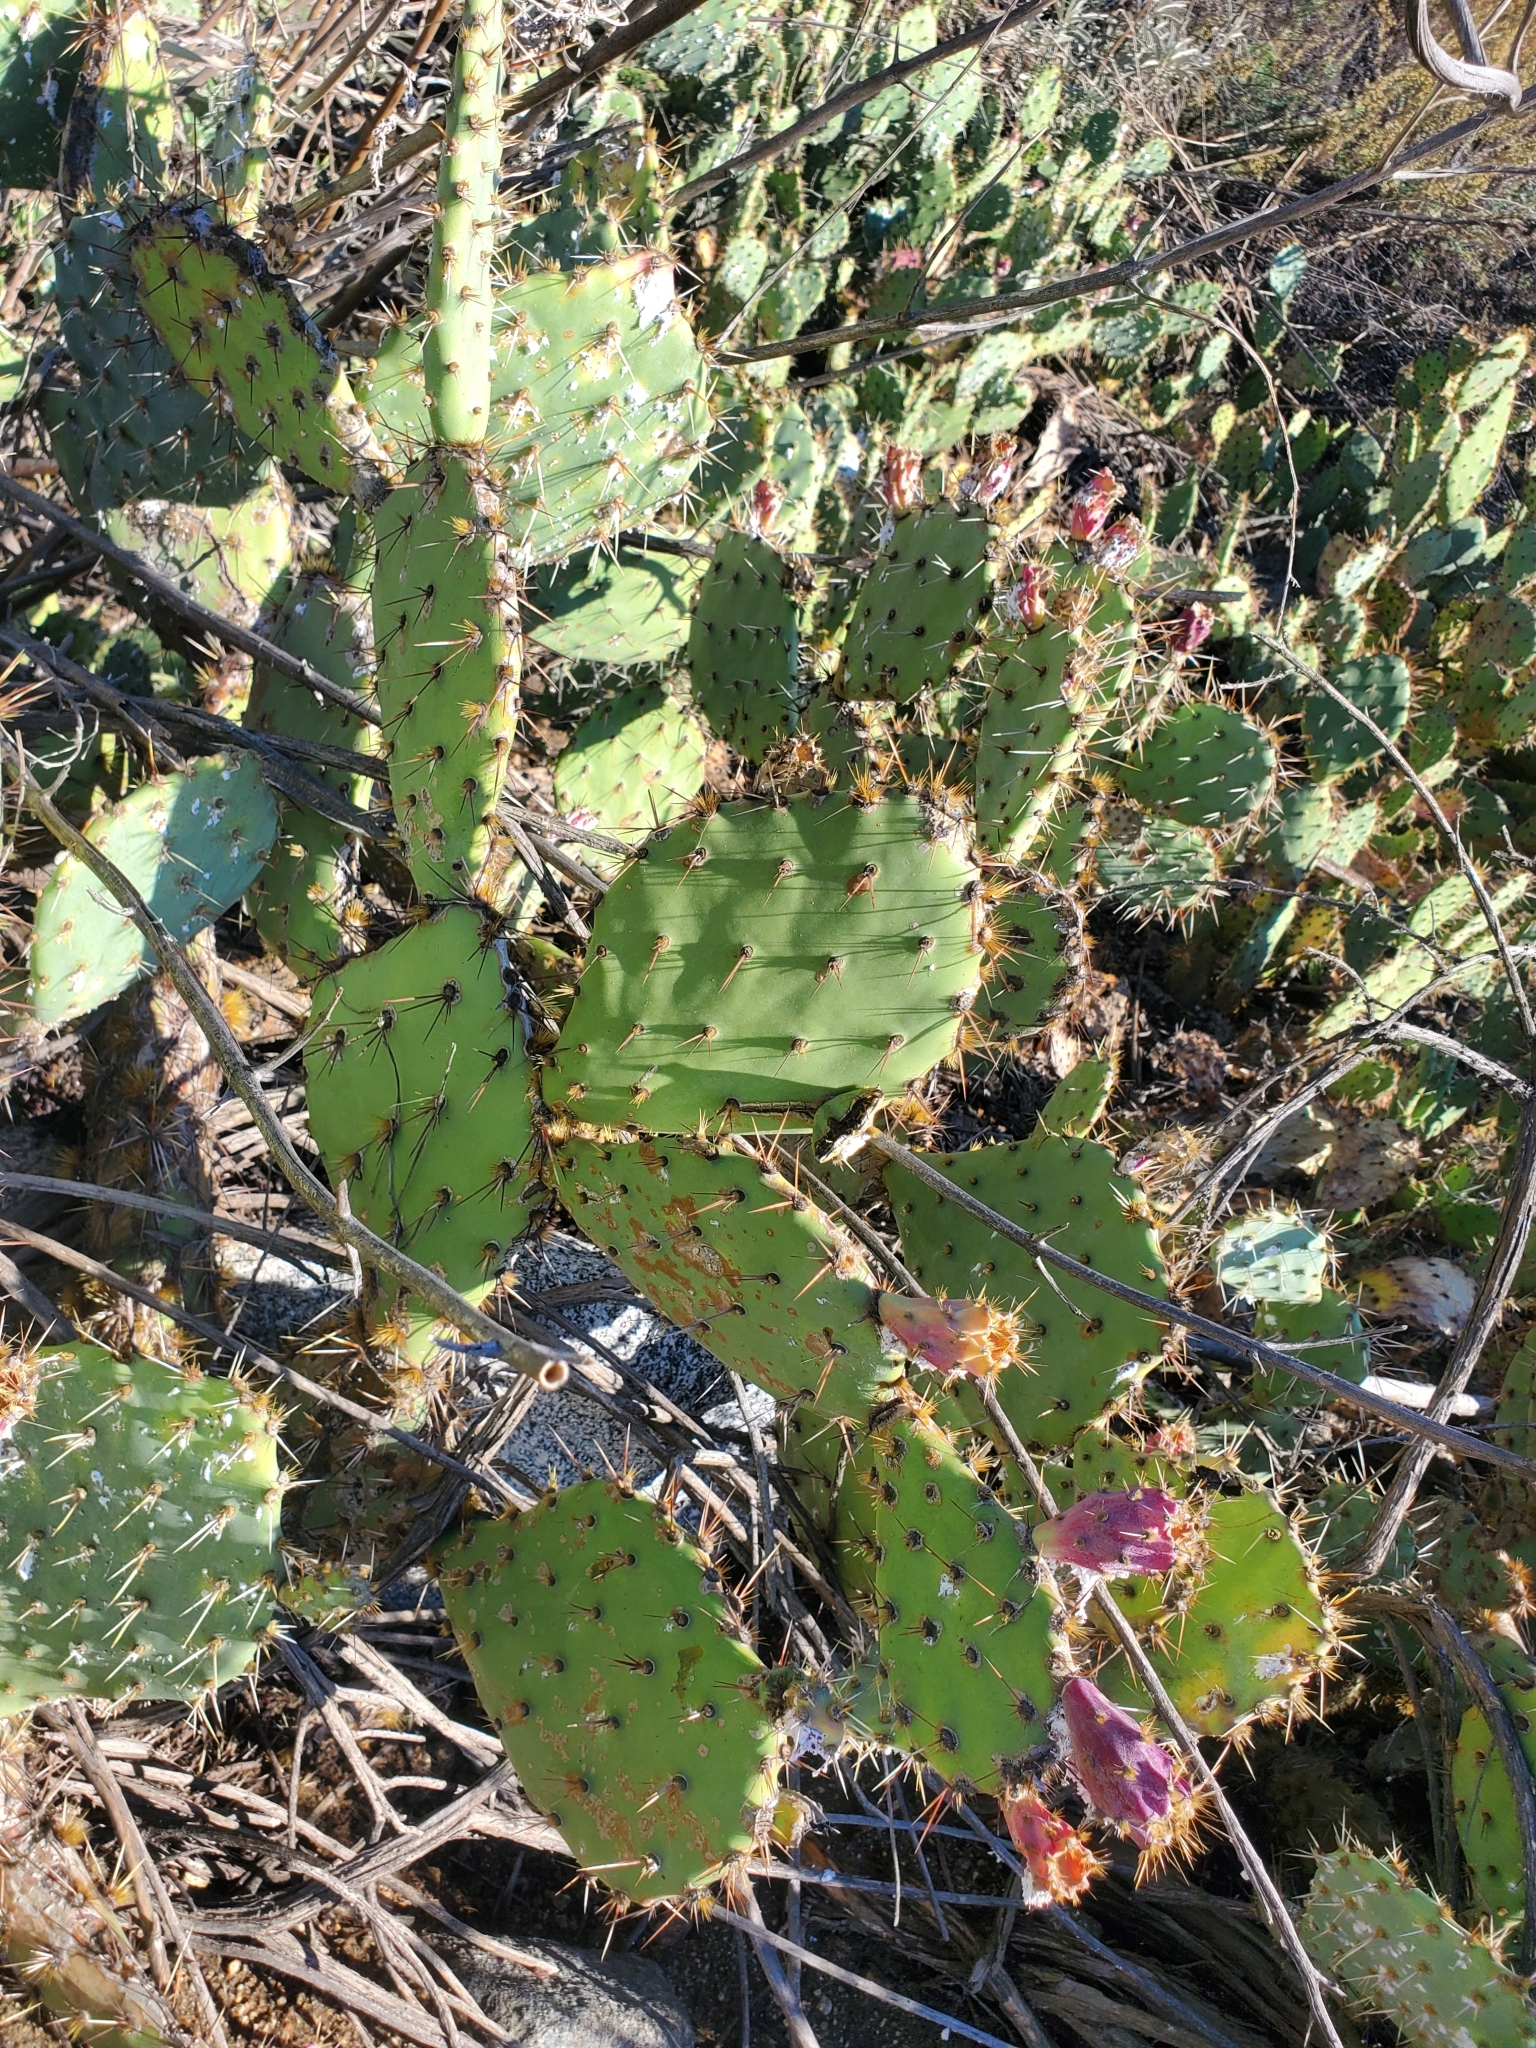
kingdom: Plantae
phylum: Tracheophyta
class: Magnoliopsida
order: Caryophyllales
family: Cactaceae
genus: Opuntia
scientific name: Opuntia
